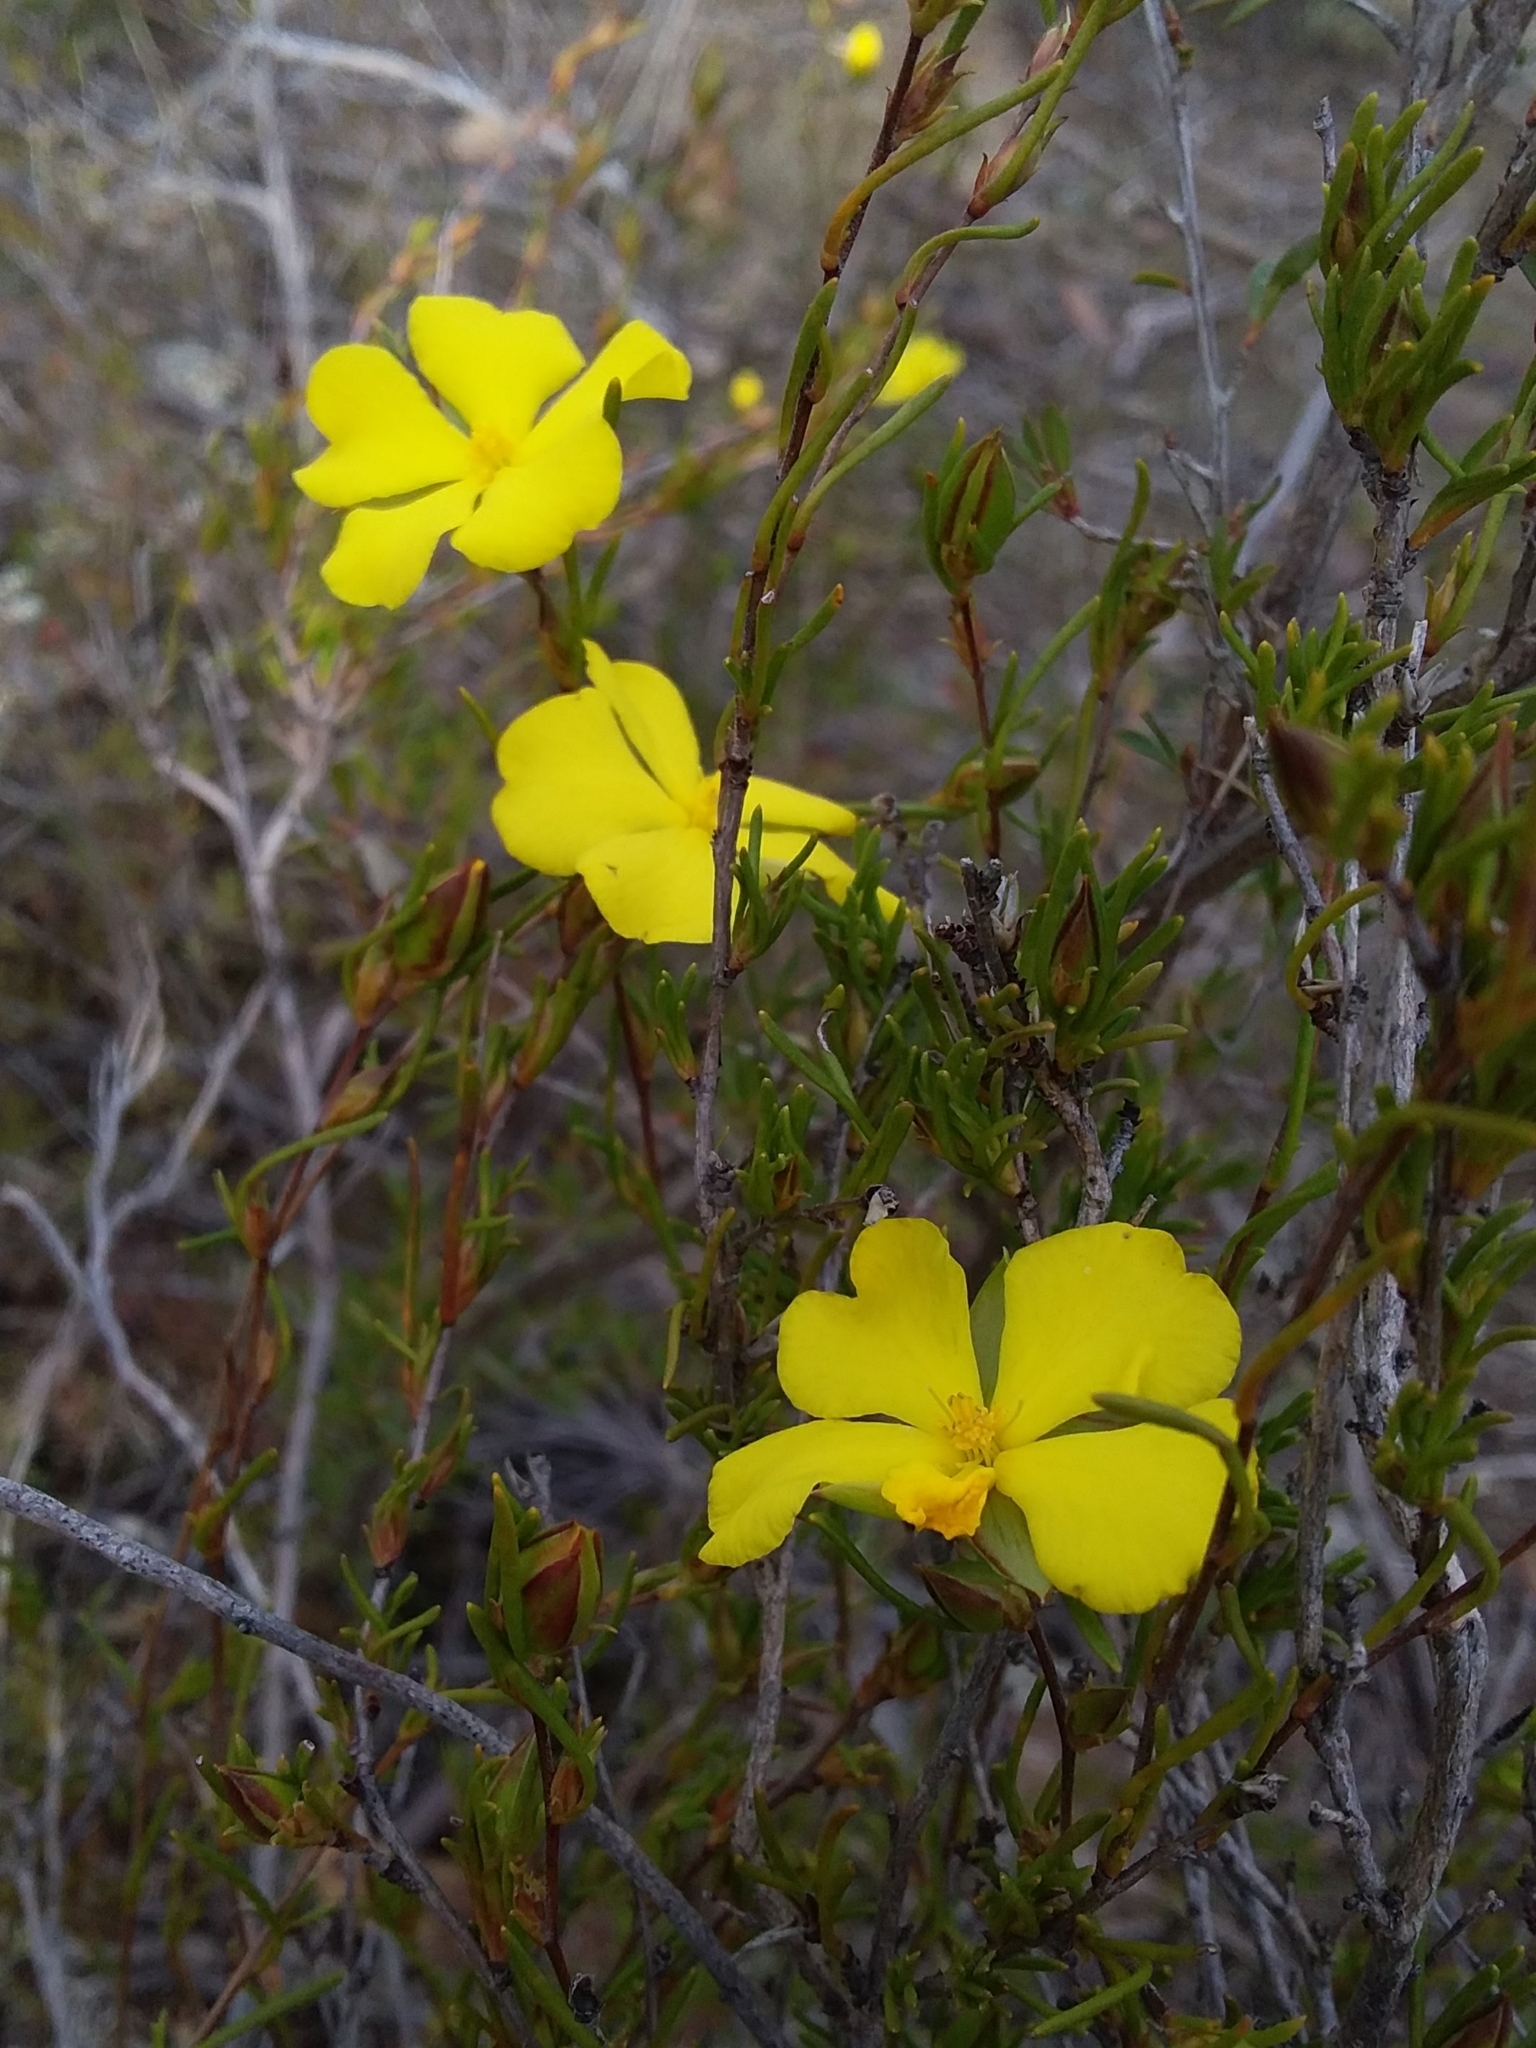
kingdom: Plantae
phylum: Tracheophyta
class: Magnoliopsida
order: Dilleniales
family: Dilleniaceae
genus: Hibbertia
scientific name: Hibbertia virgata
